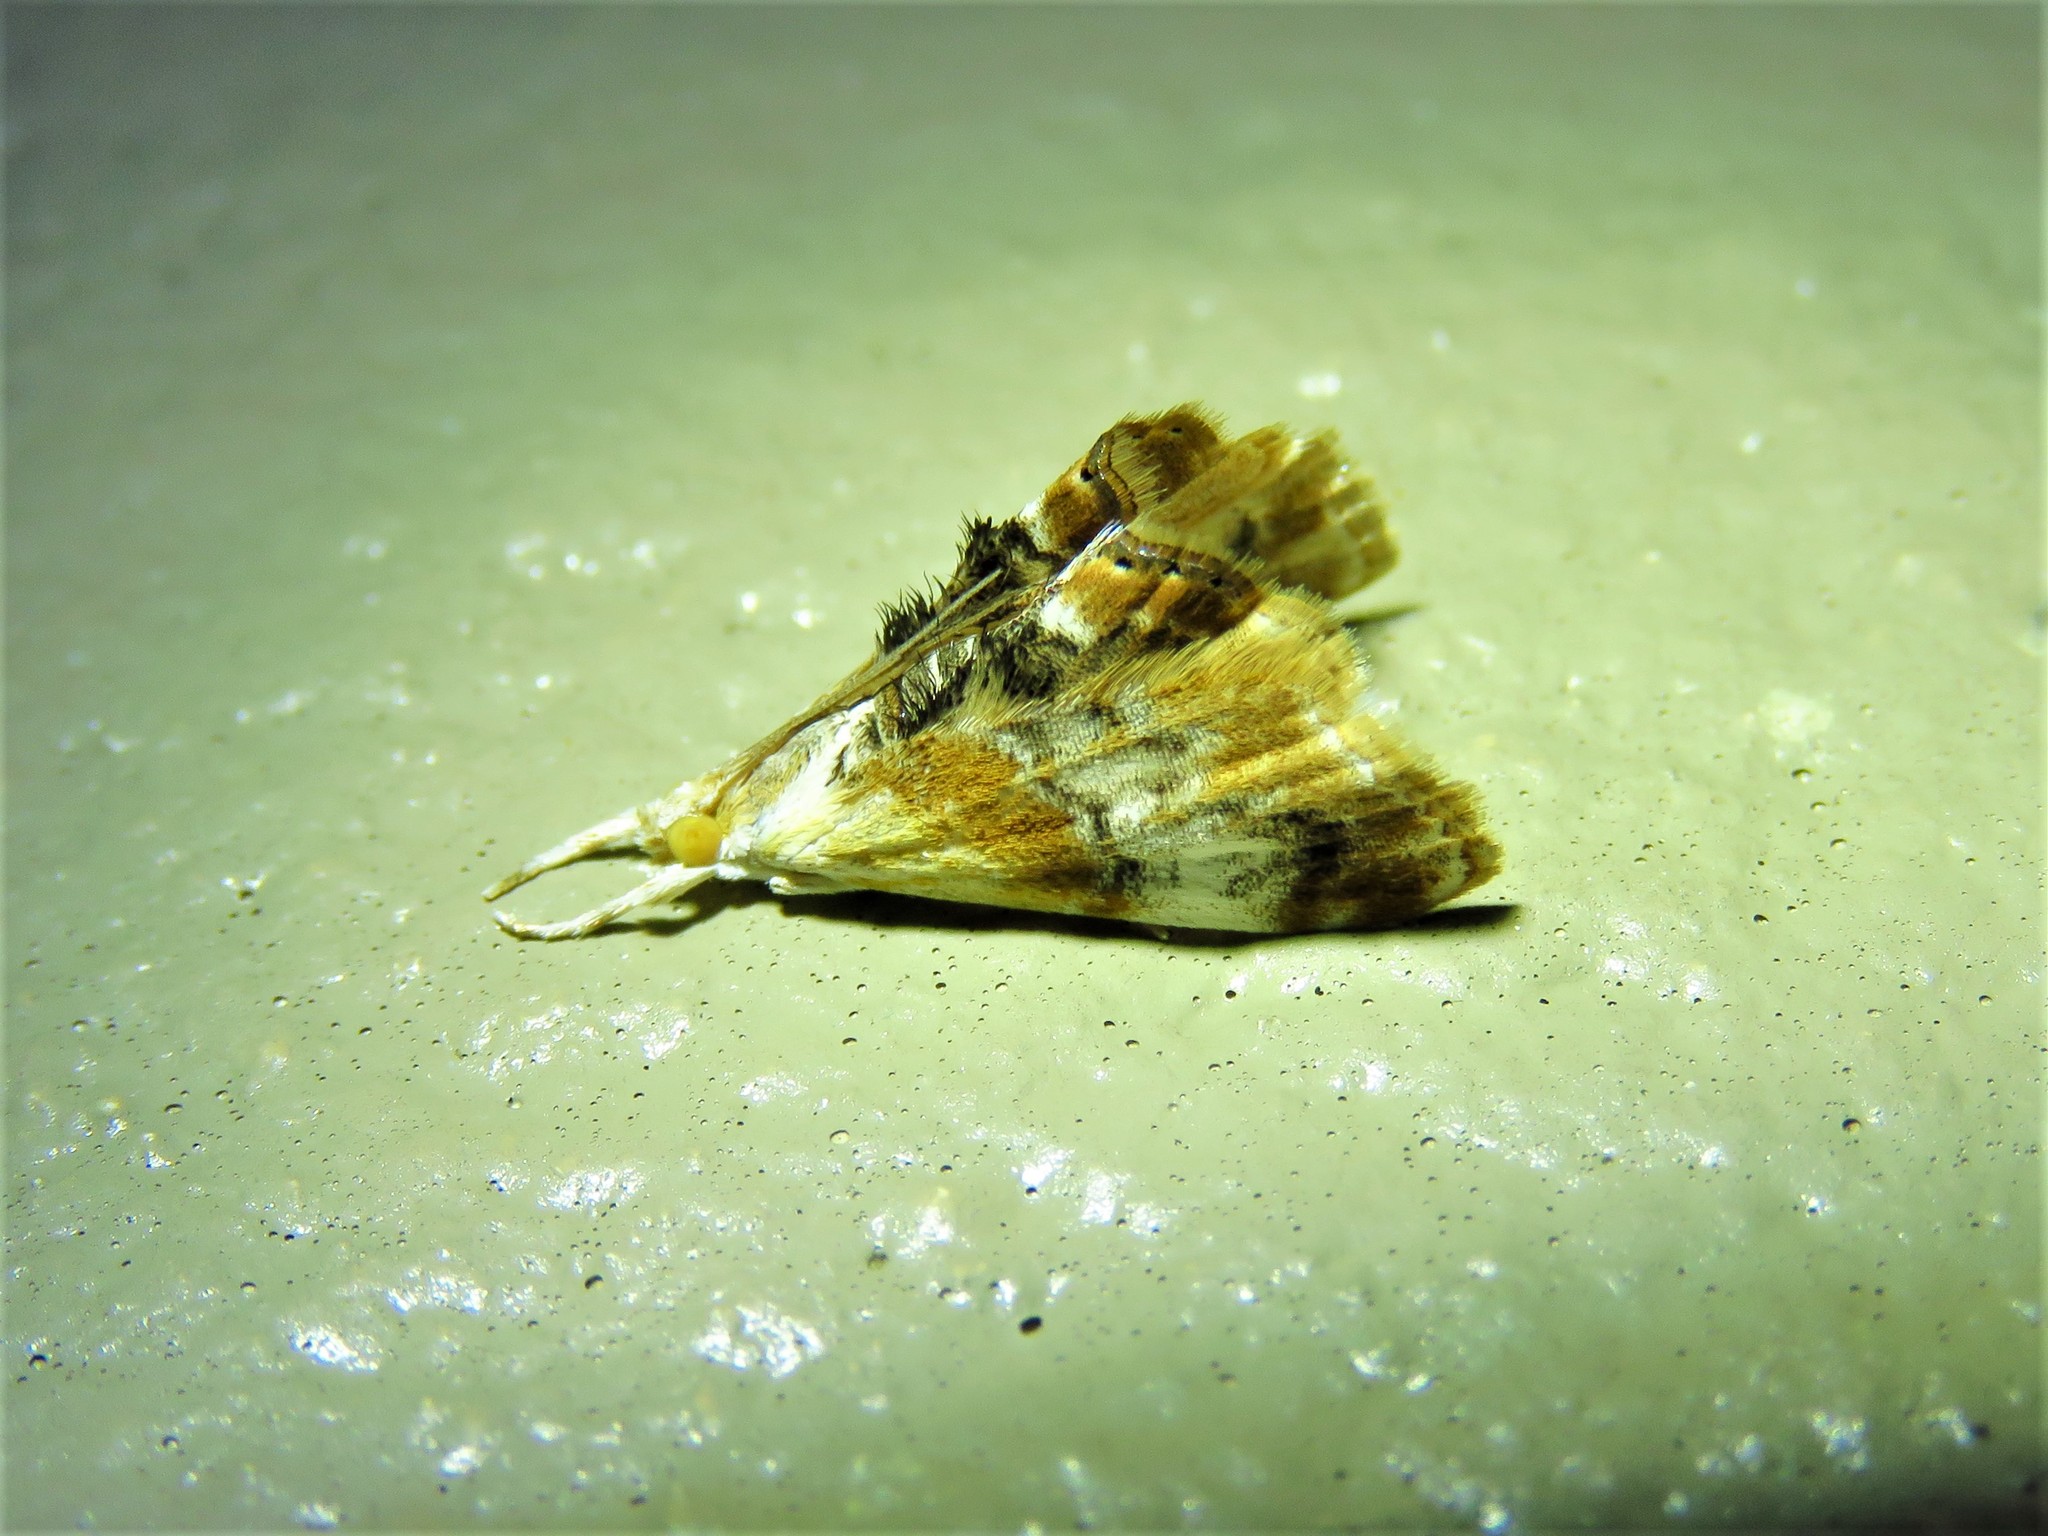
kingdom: Animalia
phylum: Arthropoda
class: Insecta
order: Lepidoptera
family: Crambidae
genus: Dicymolomia
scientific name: Dicymolomia julianalis
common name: Julia's dicymolomia moth
